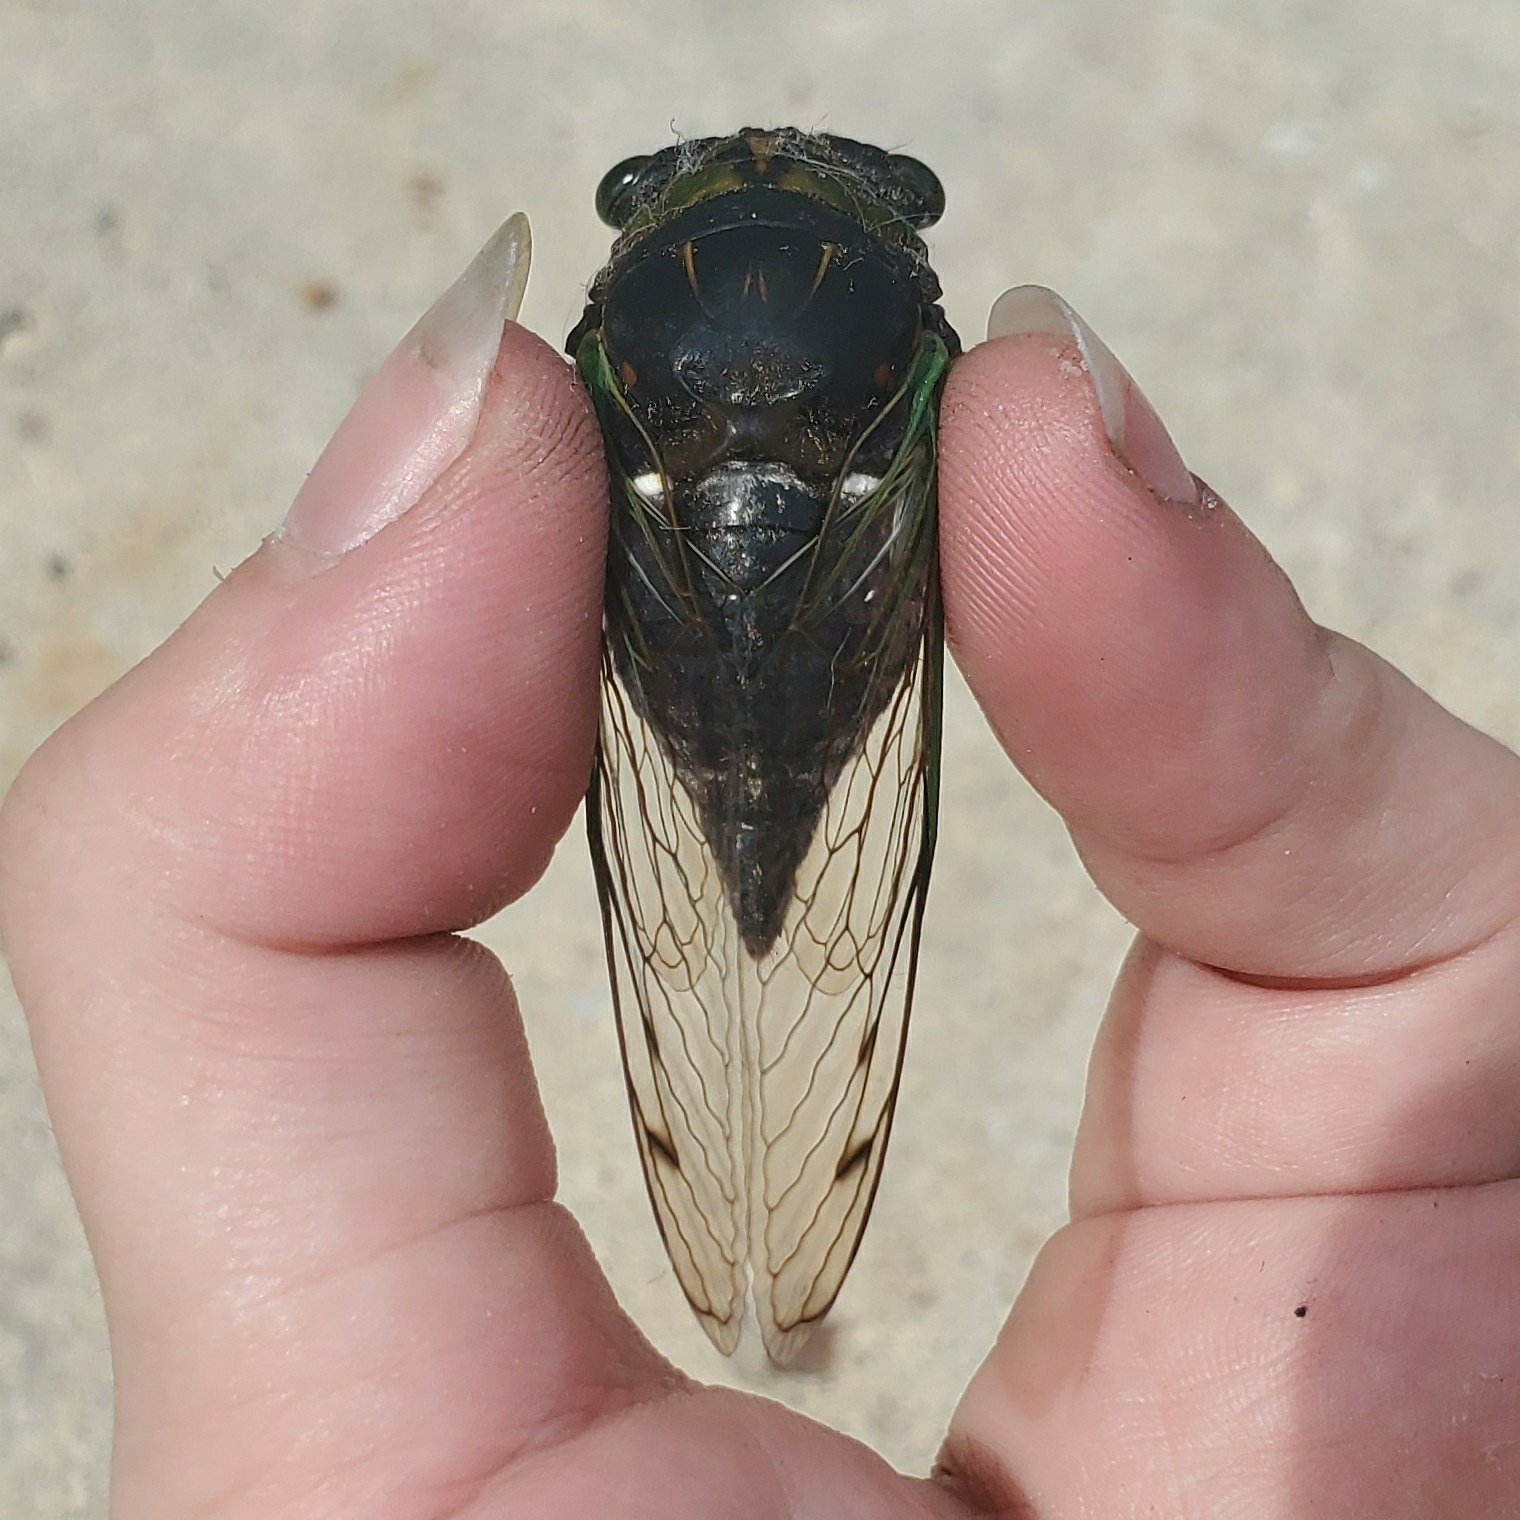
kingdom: Animalia
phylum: Arthropoda
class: Insecta
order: Hemiptera
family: Cicadidae
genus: Neotibicen
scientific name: Neotibicen tibicen
